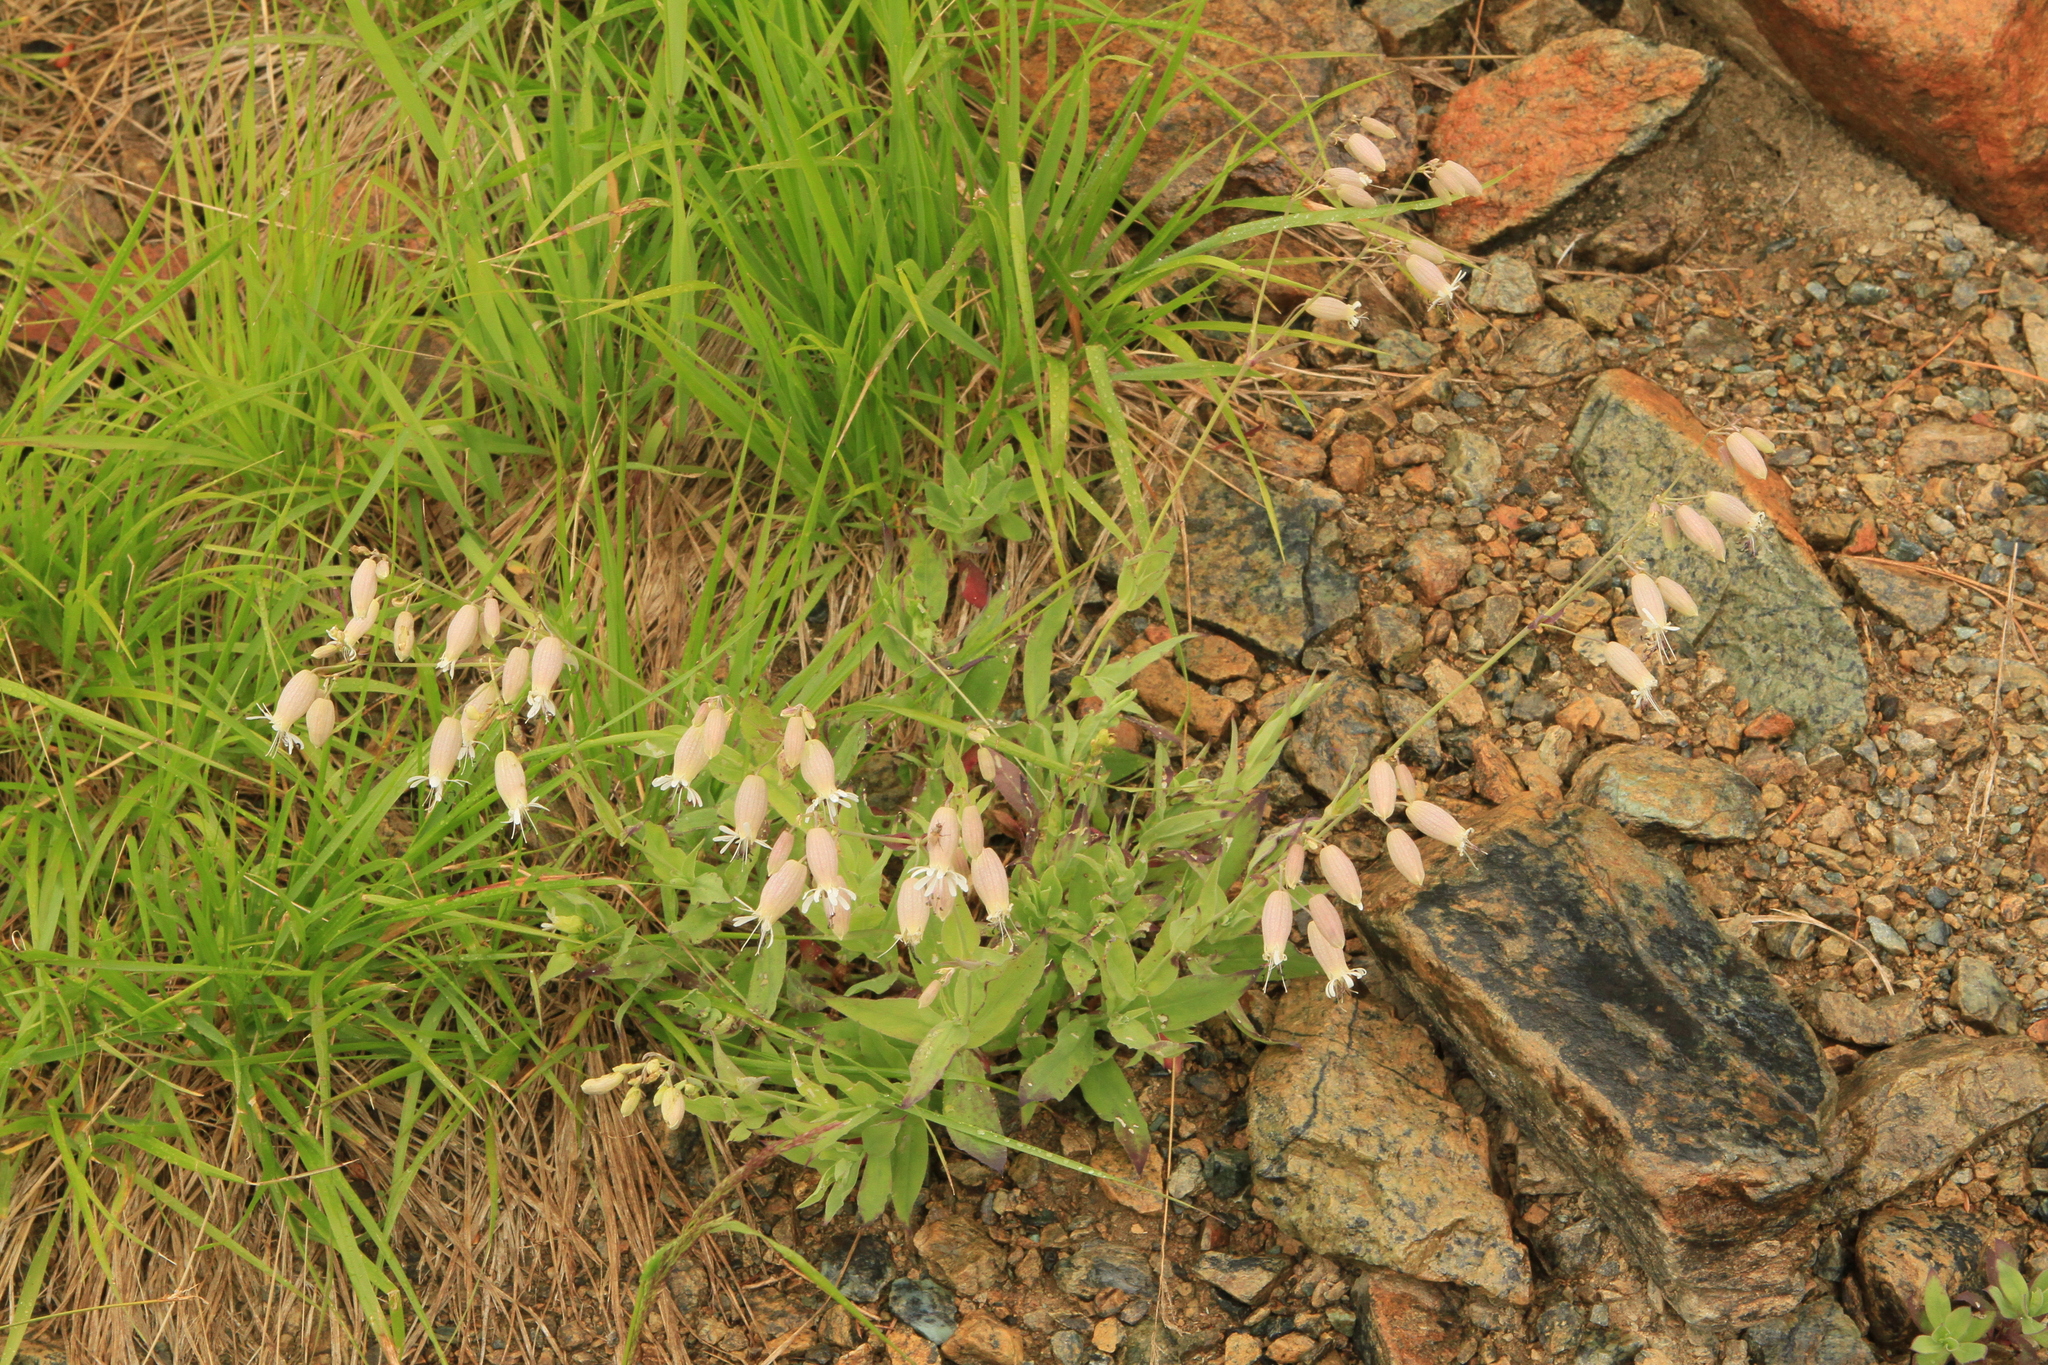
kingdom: Plantae
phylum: Tracheophyta
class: Magnoliopsida
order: Caryophyllales
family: Caryophyllaceae
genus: Silene
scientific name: Silene vulgaris
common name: Bladder campion
